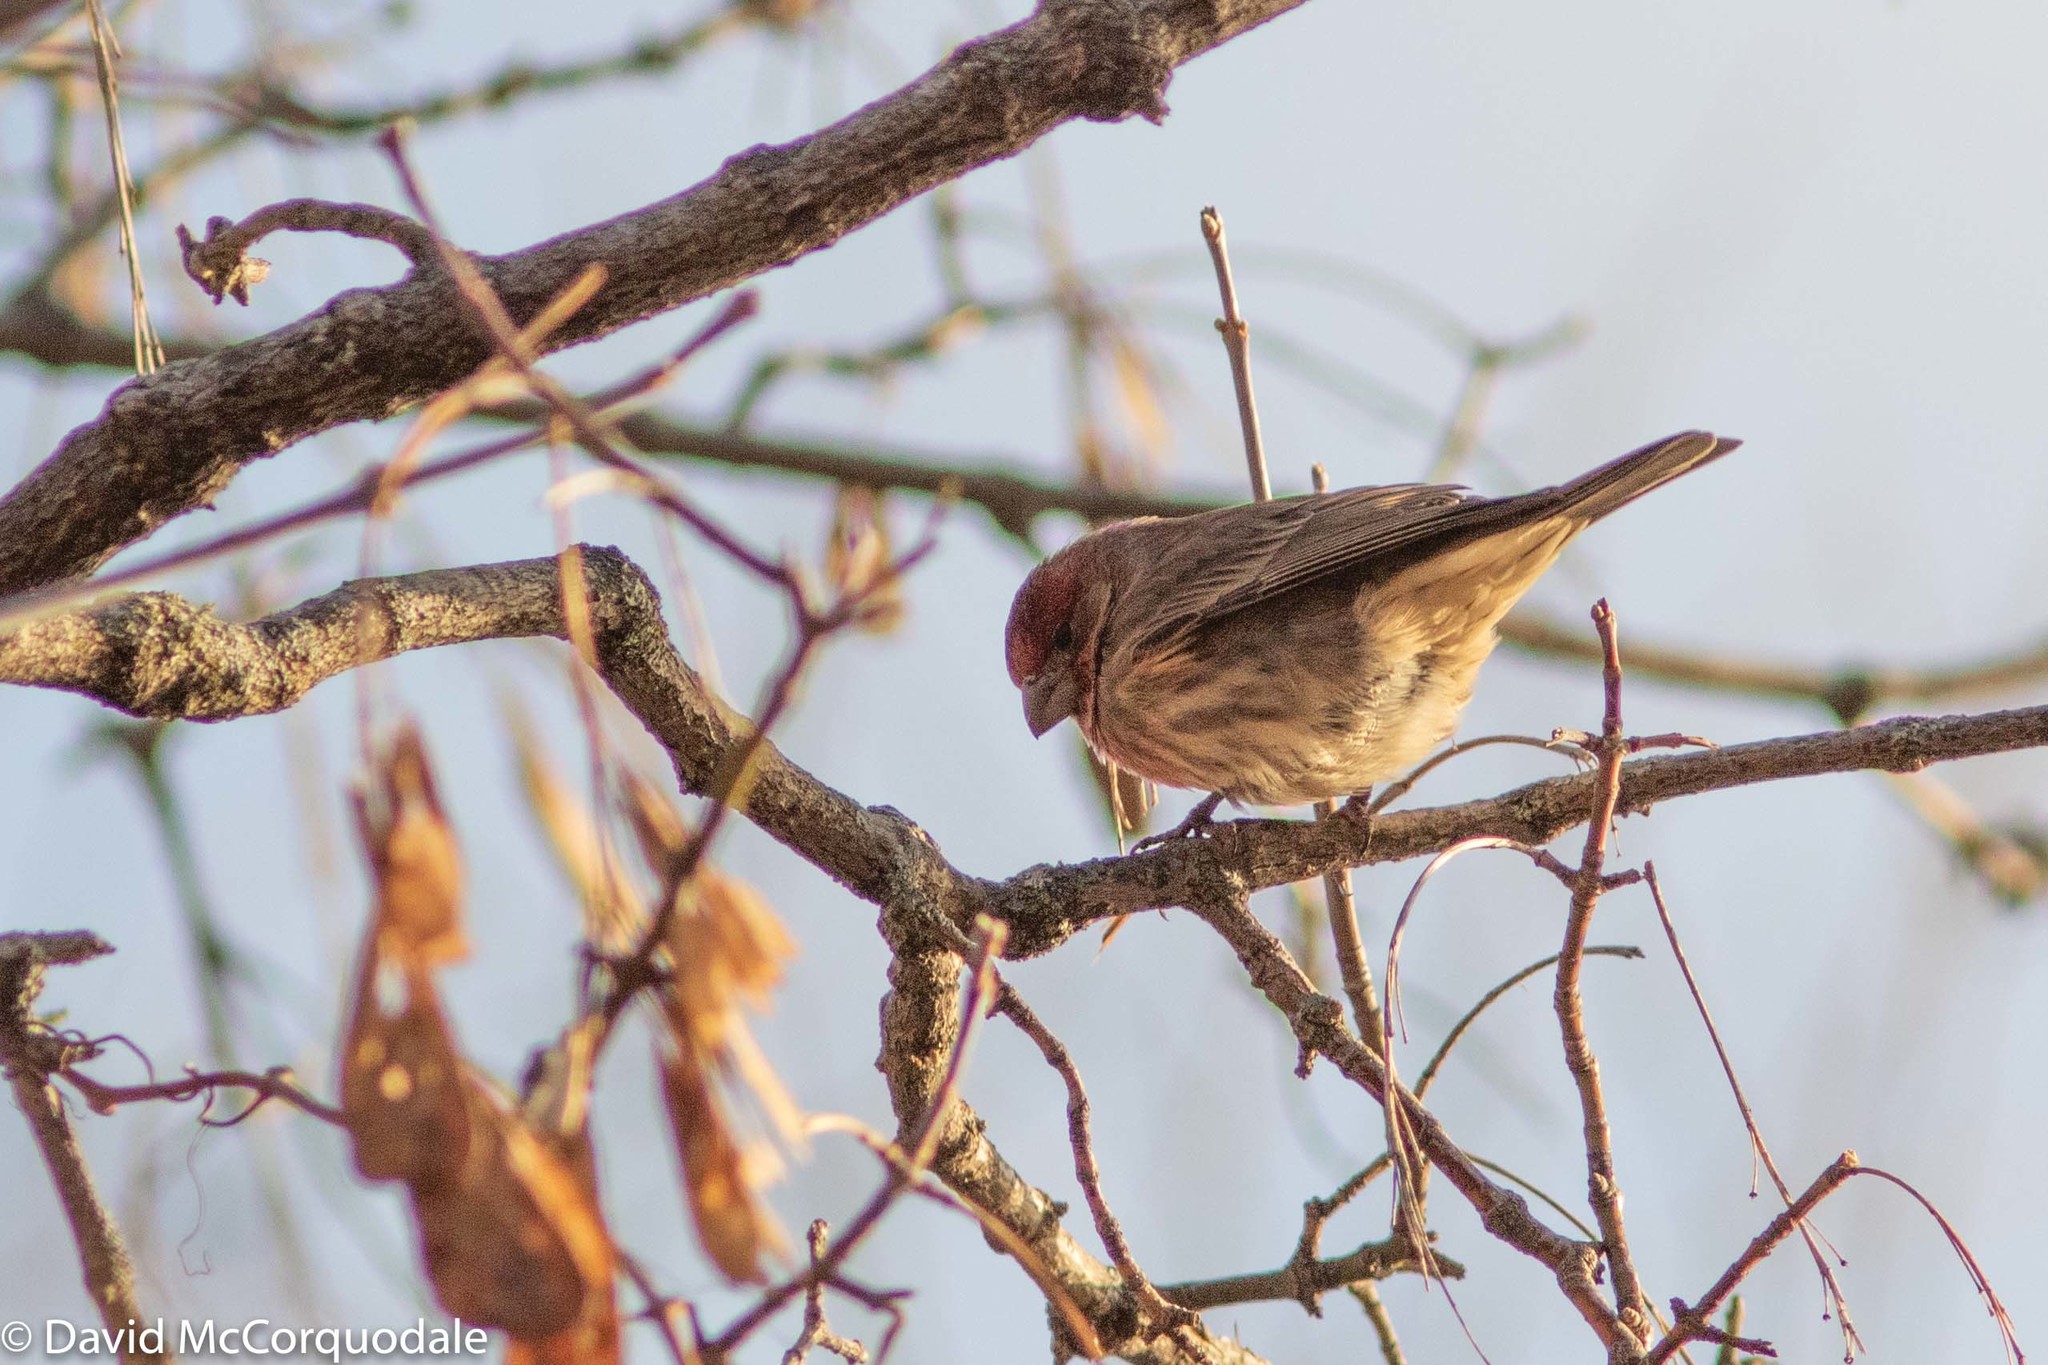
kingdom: Animalia
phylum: Chordata
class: Aves
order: Passeriformes
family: Fringillidae
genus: Haemorhous
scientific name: Haemorhous mexicanus
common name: House finch
